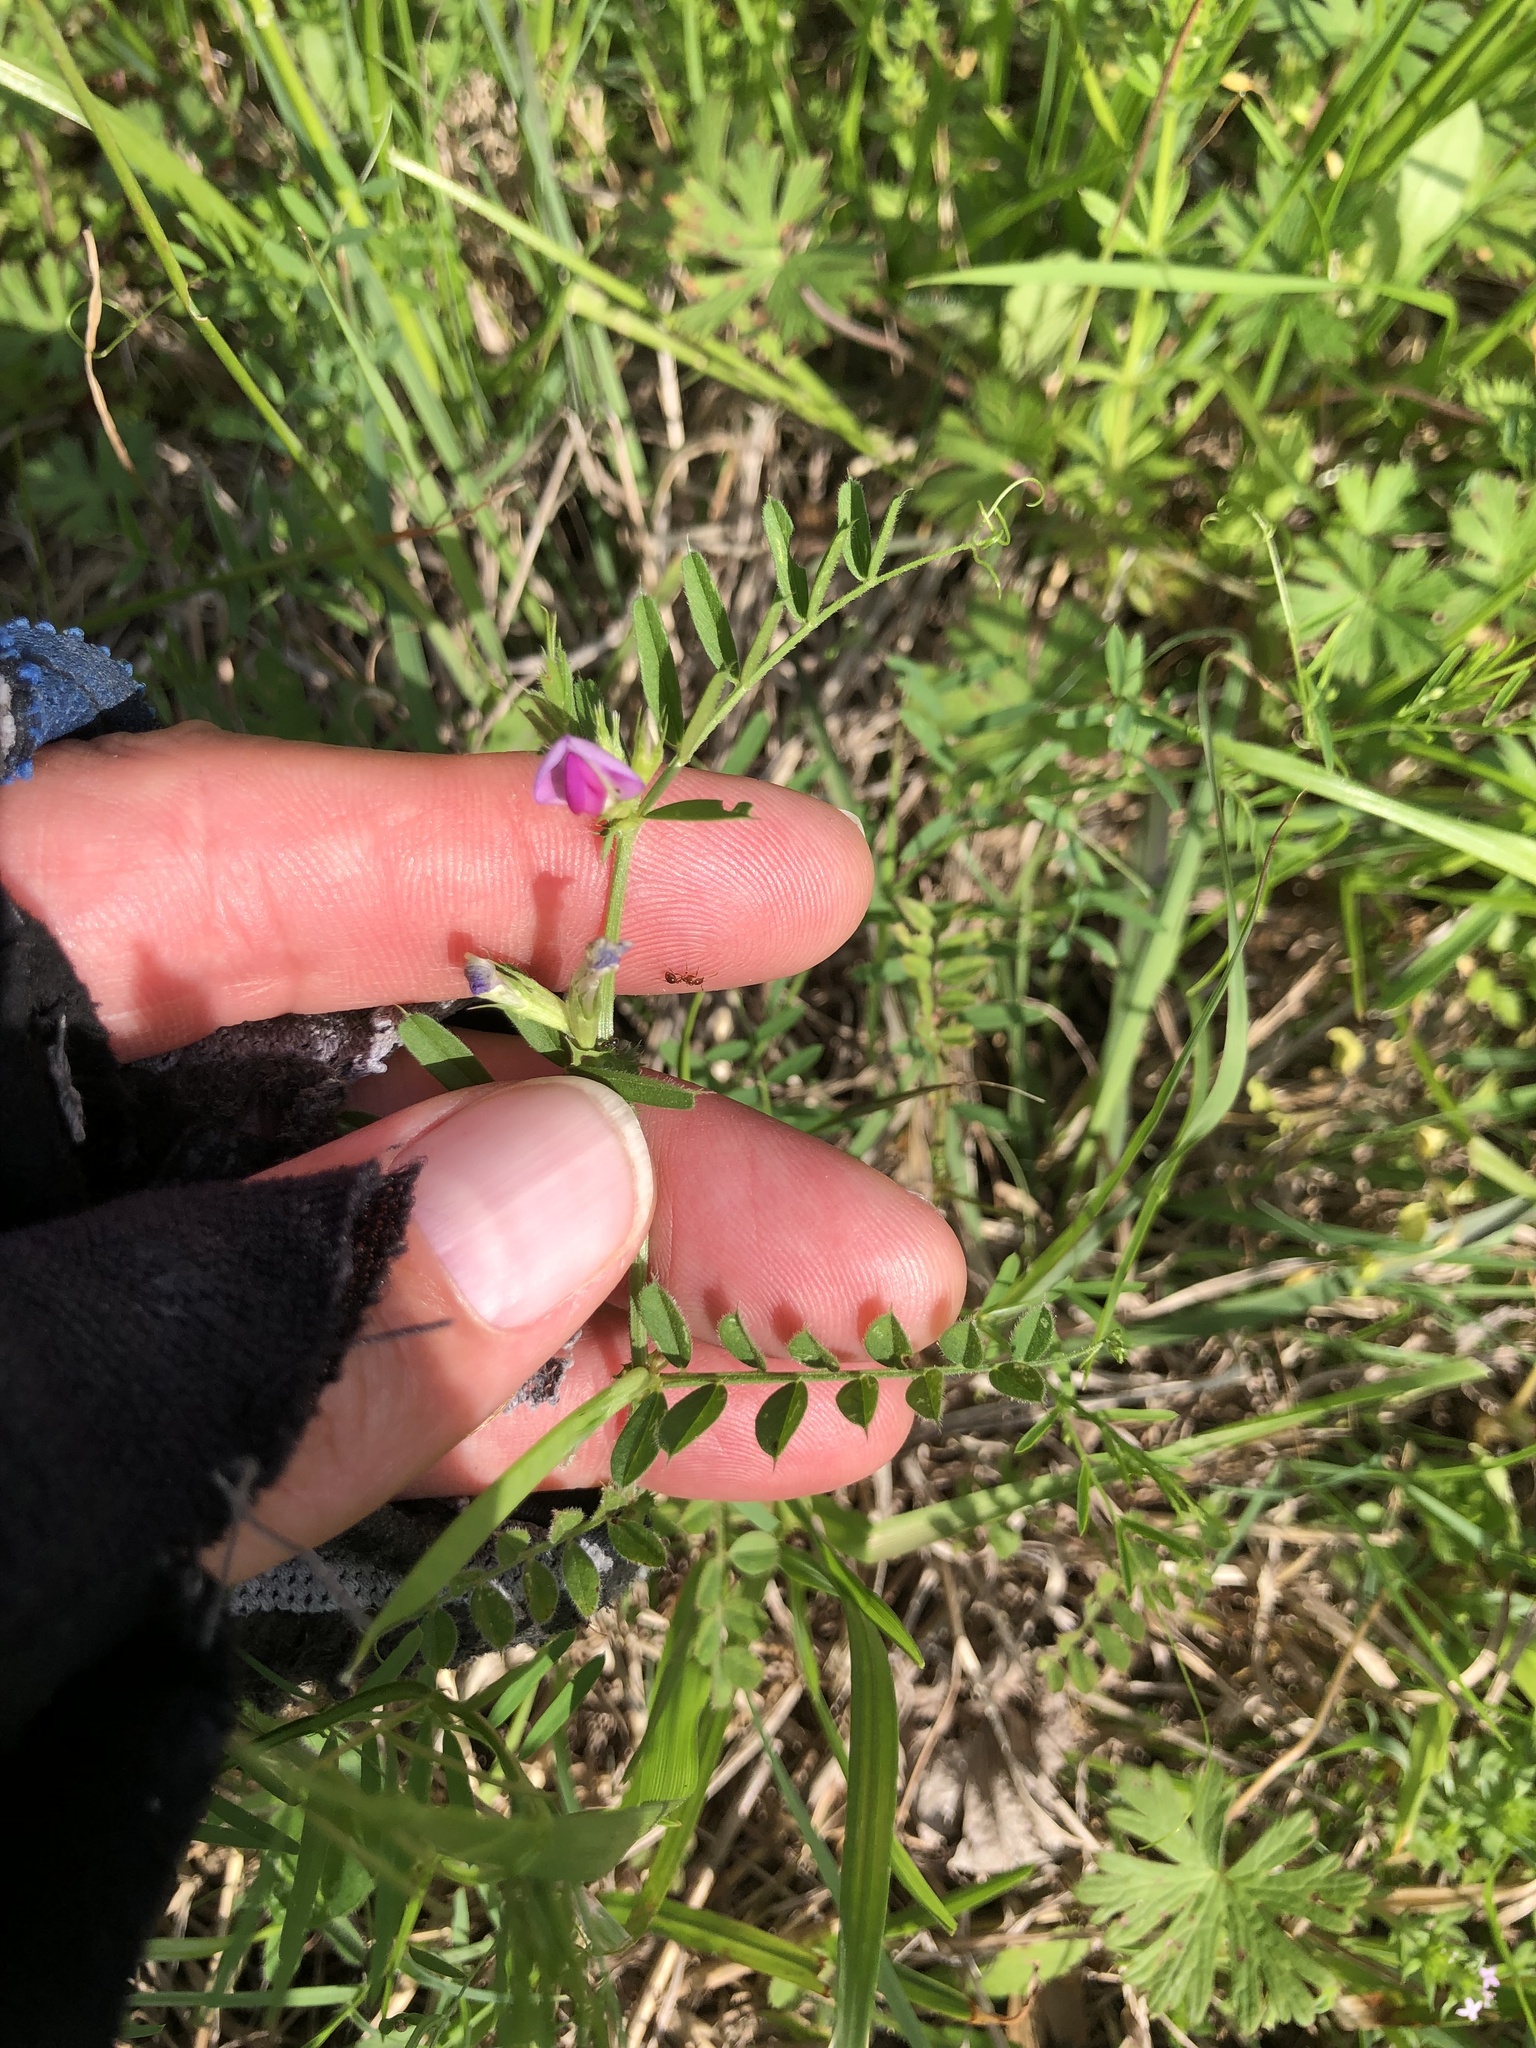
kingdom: Plantae
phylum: Tracheophyta
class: Magnoliopsida
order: Fabales
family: Fabaceae
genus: Vicia
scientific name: Vicia sativa
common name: Garden vetch
